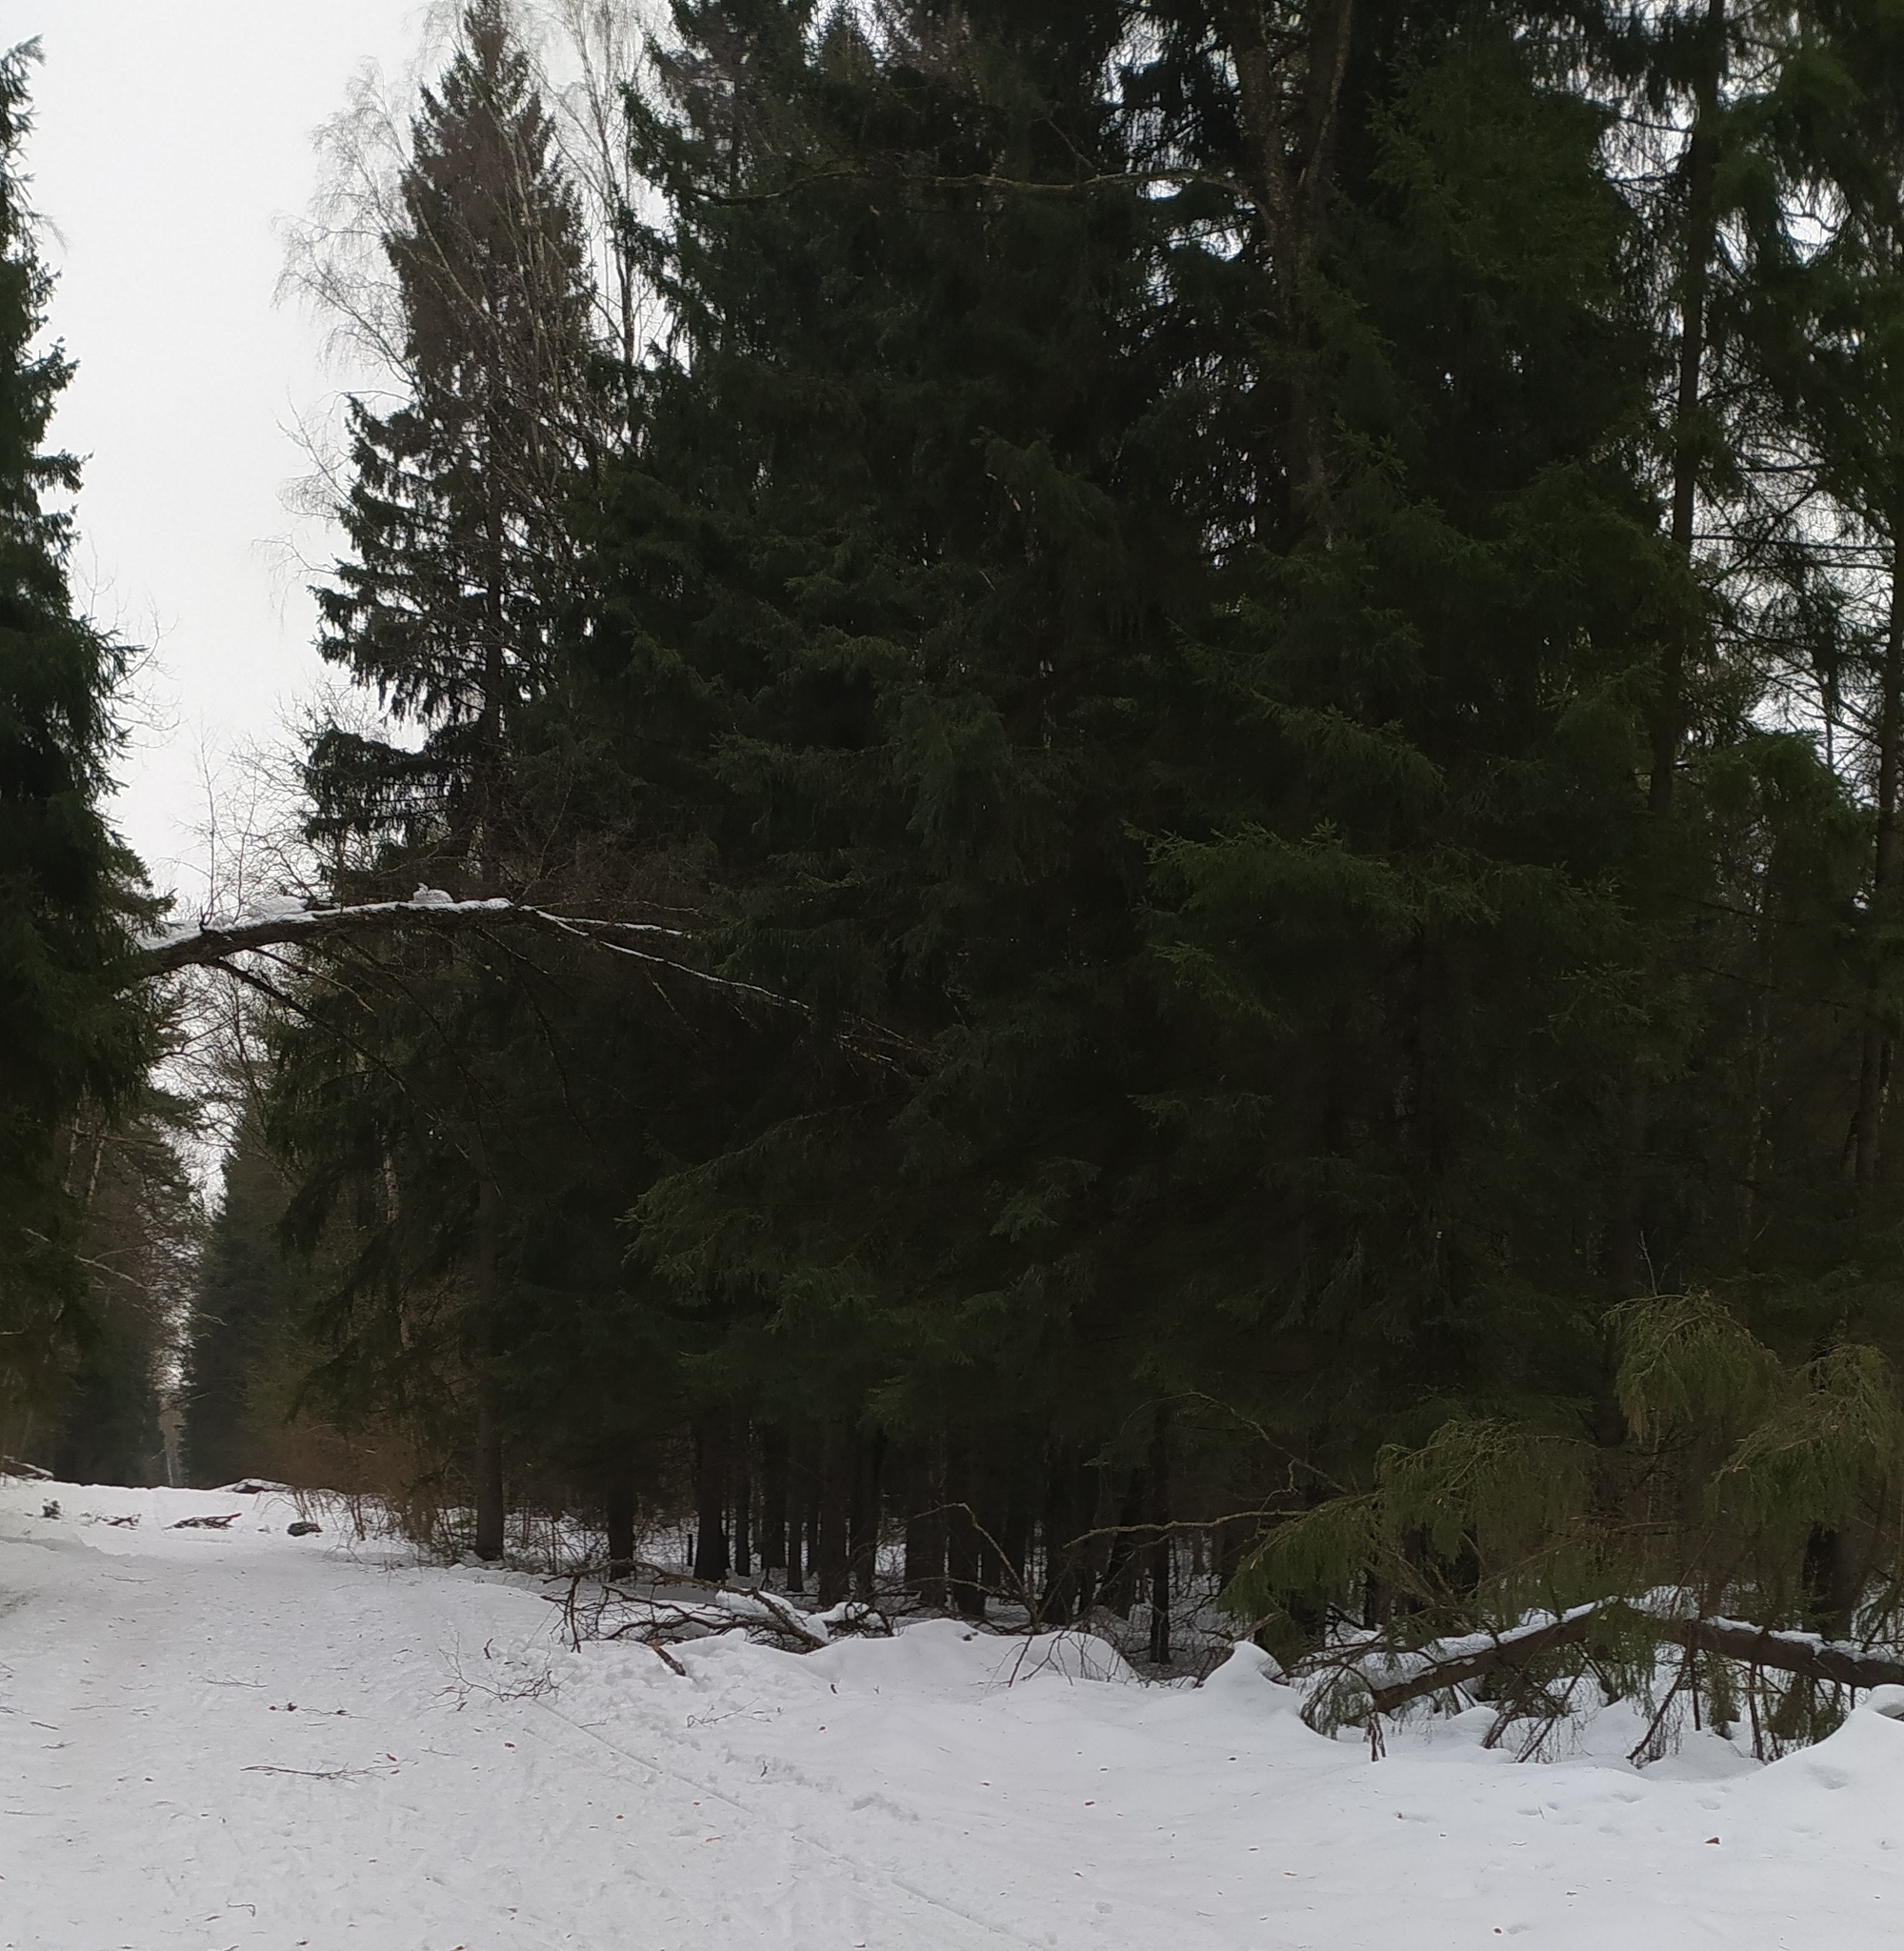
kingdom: Plantae
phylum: Tracheophyta
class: Pinopsida
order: Pinales
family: Pinaceae
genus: Picea
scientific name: Picea abies
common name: Norway spruce
